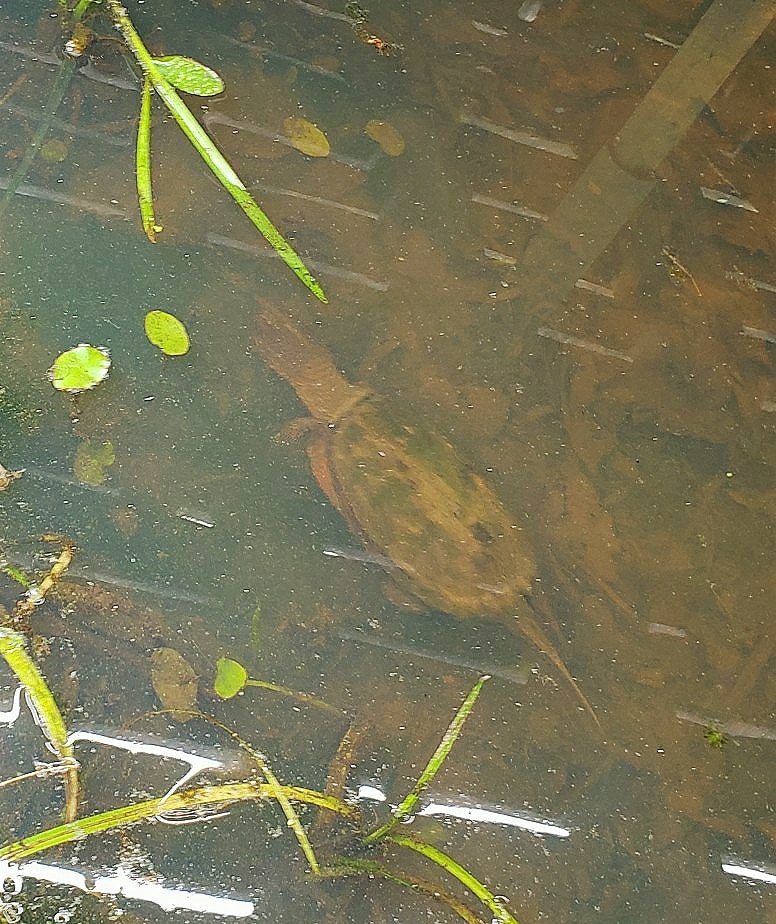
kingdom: Animalia
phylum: Chordata
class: Testudines
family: Chelydridae
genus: Chelydra
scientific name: Chelydra serpentina
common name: Common snapping turtle
